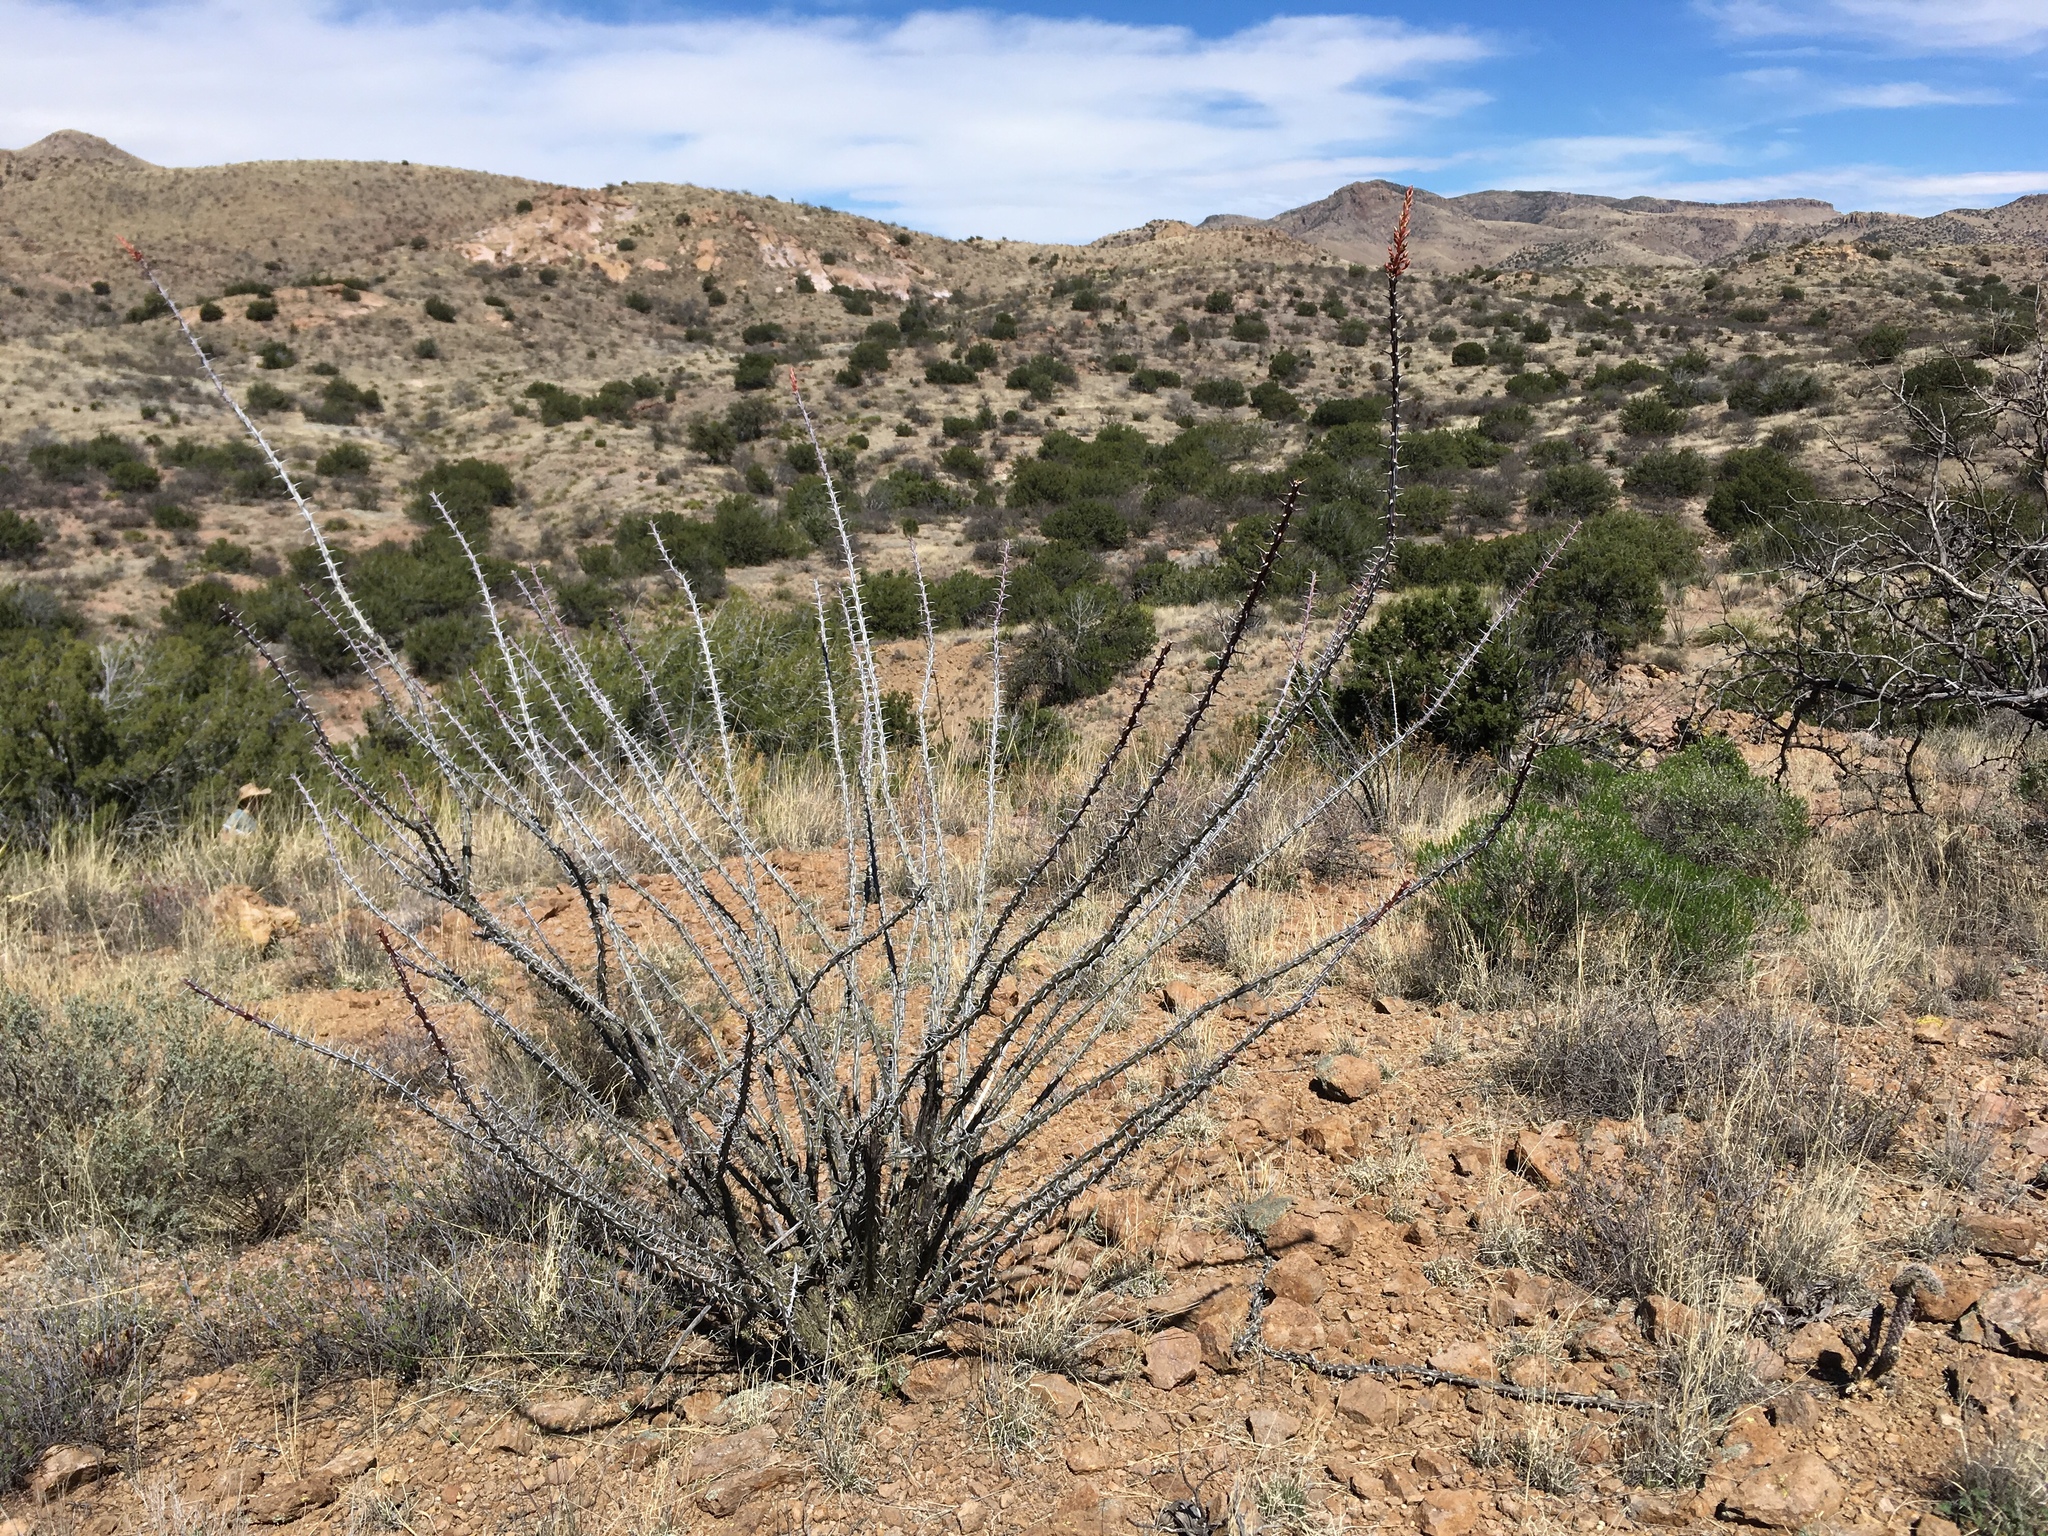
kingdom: Plantae
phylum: Tracheophyta
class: Magnoliopsida
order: Ericales
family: Fouquieriaceae
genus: Fouquieria
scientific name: Fouquieria splendens
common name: Vine-cactus
